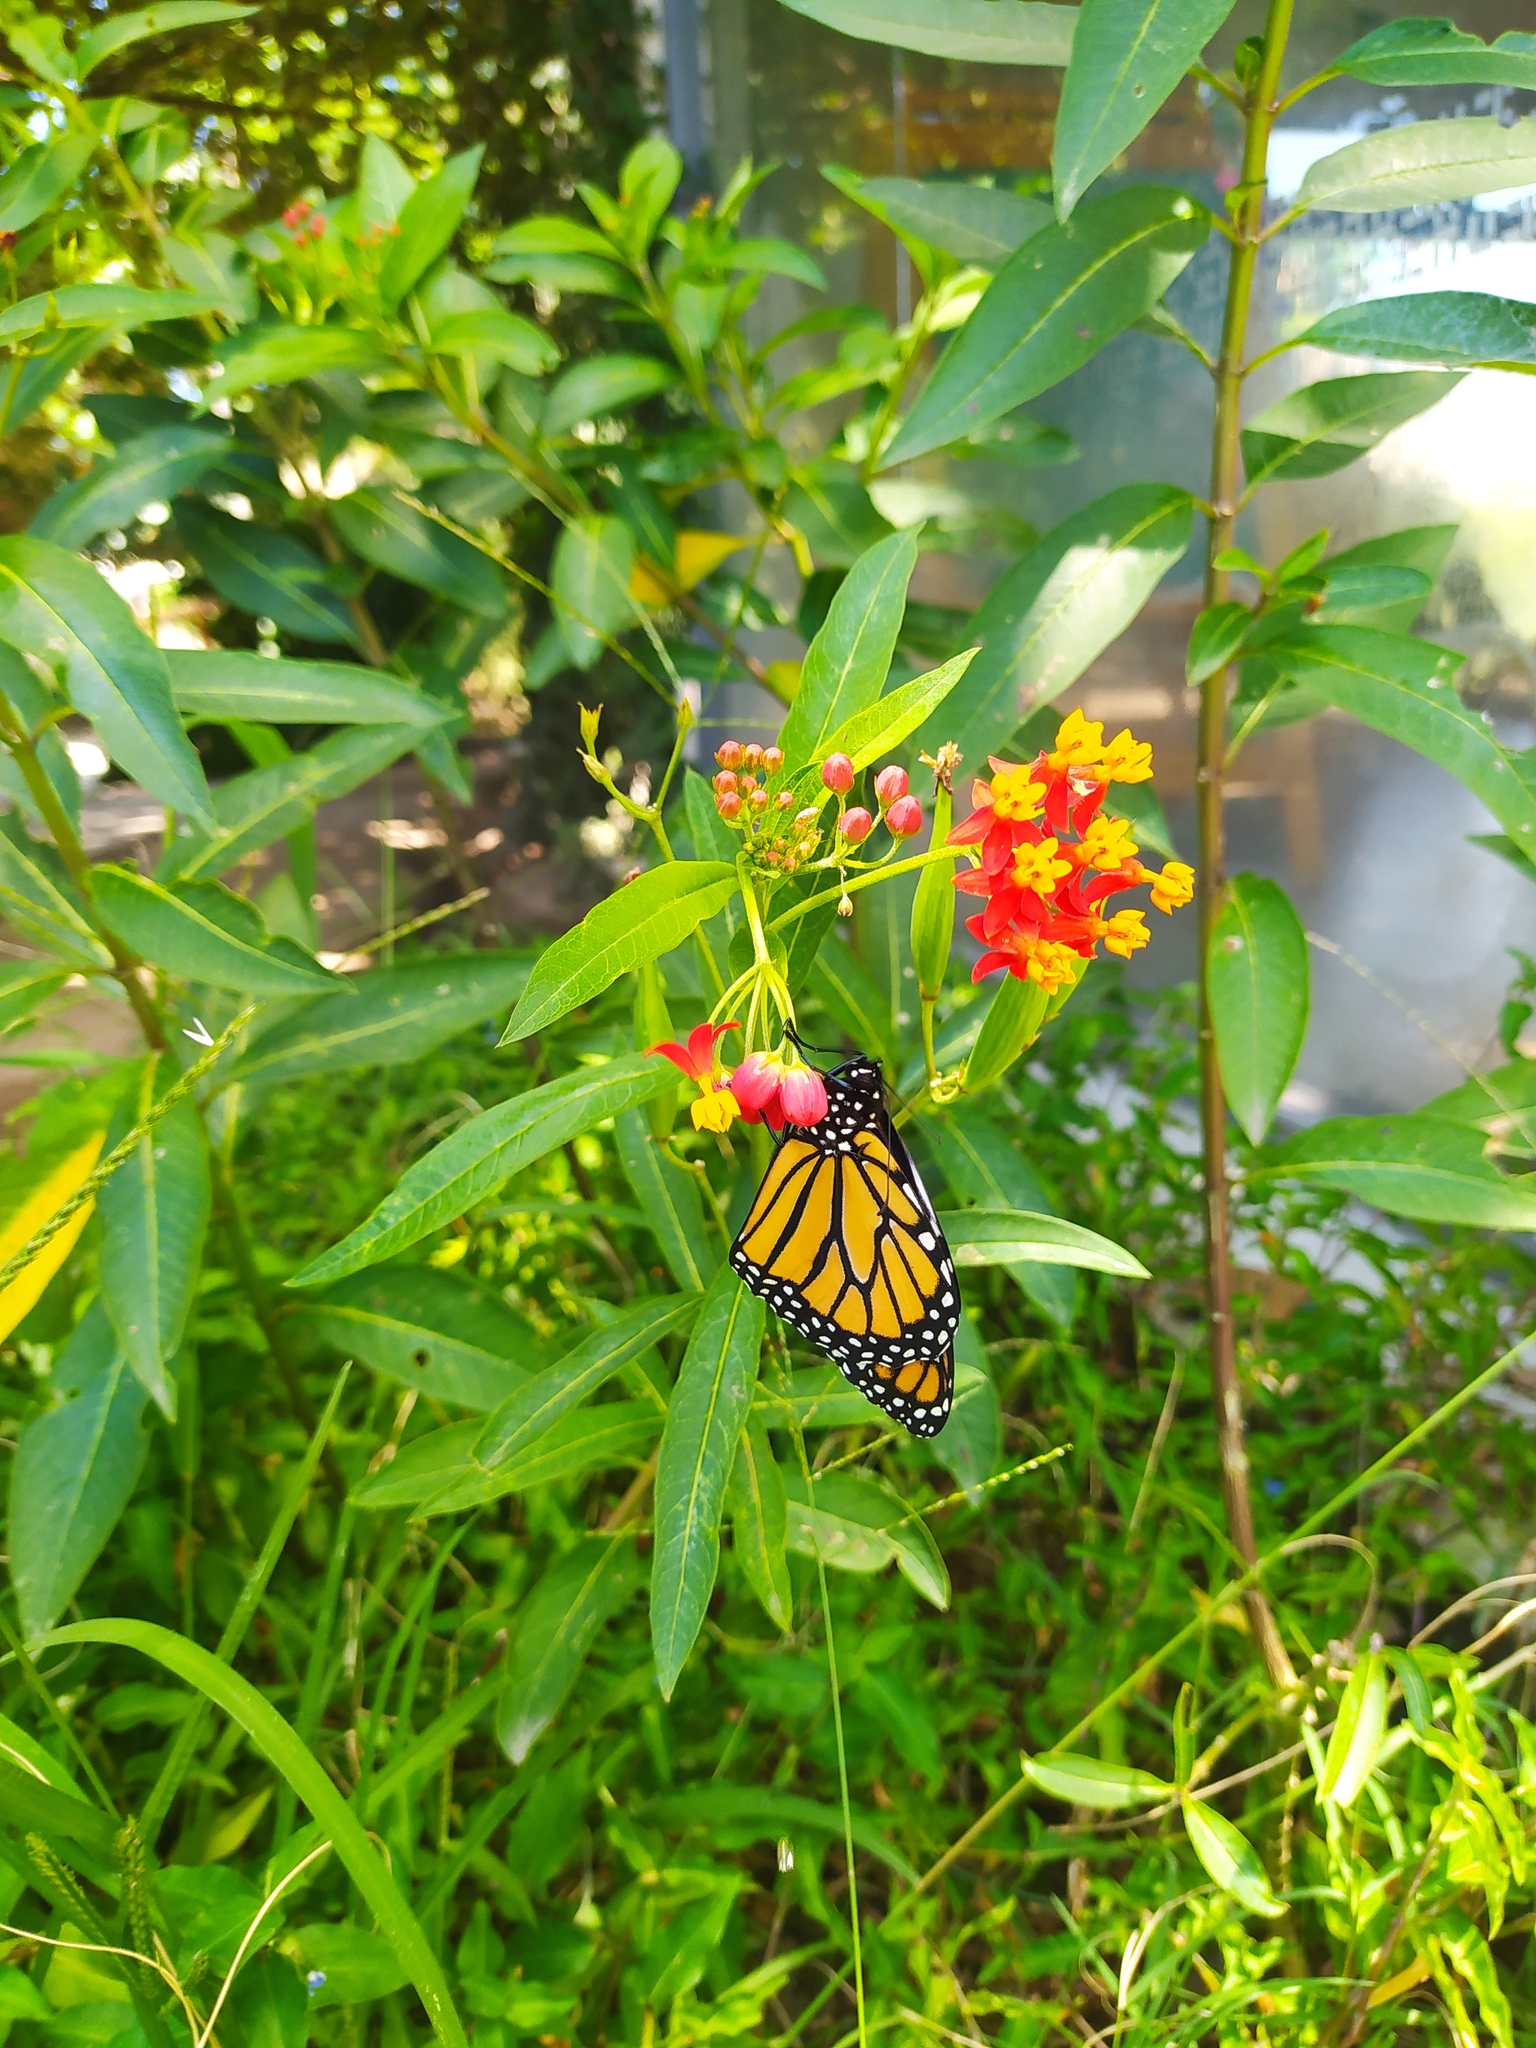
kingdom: Animalia
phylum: Arthropoda
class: Insecta
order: Lepidoptera
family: Nymphalidae
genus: Danaus
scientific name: Danaus plexippus
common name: Monarch
